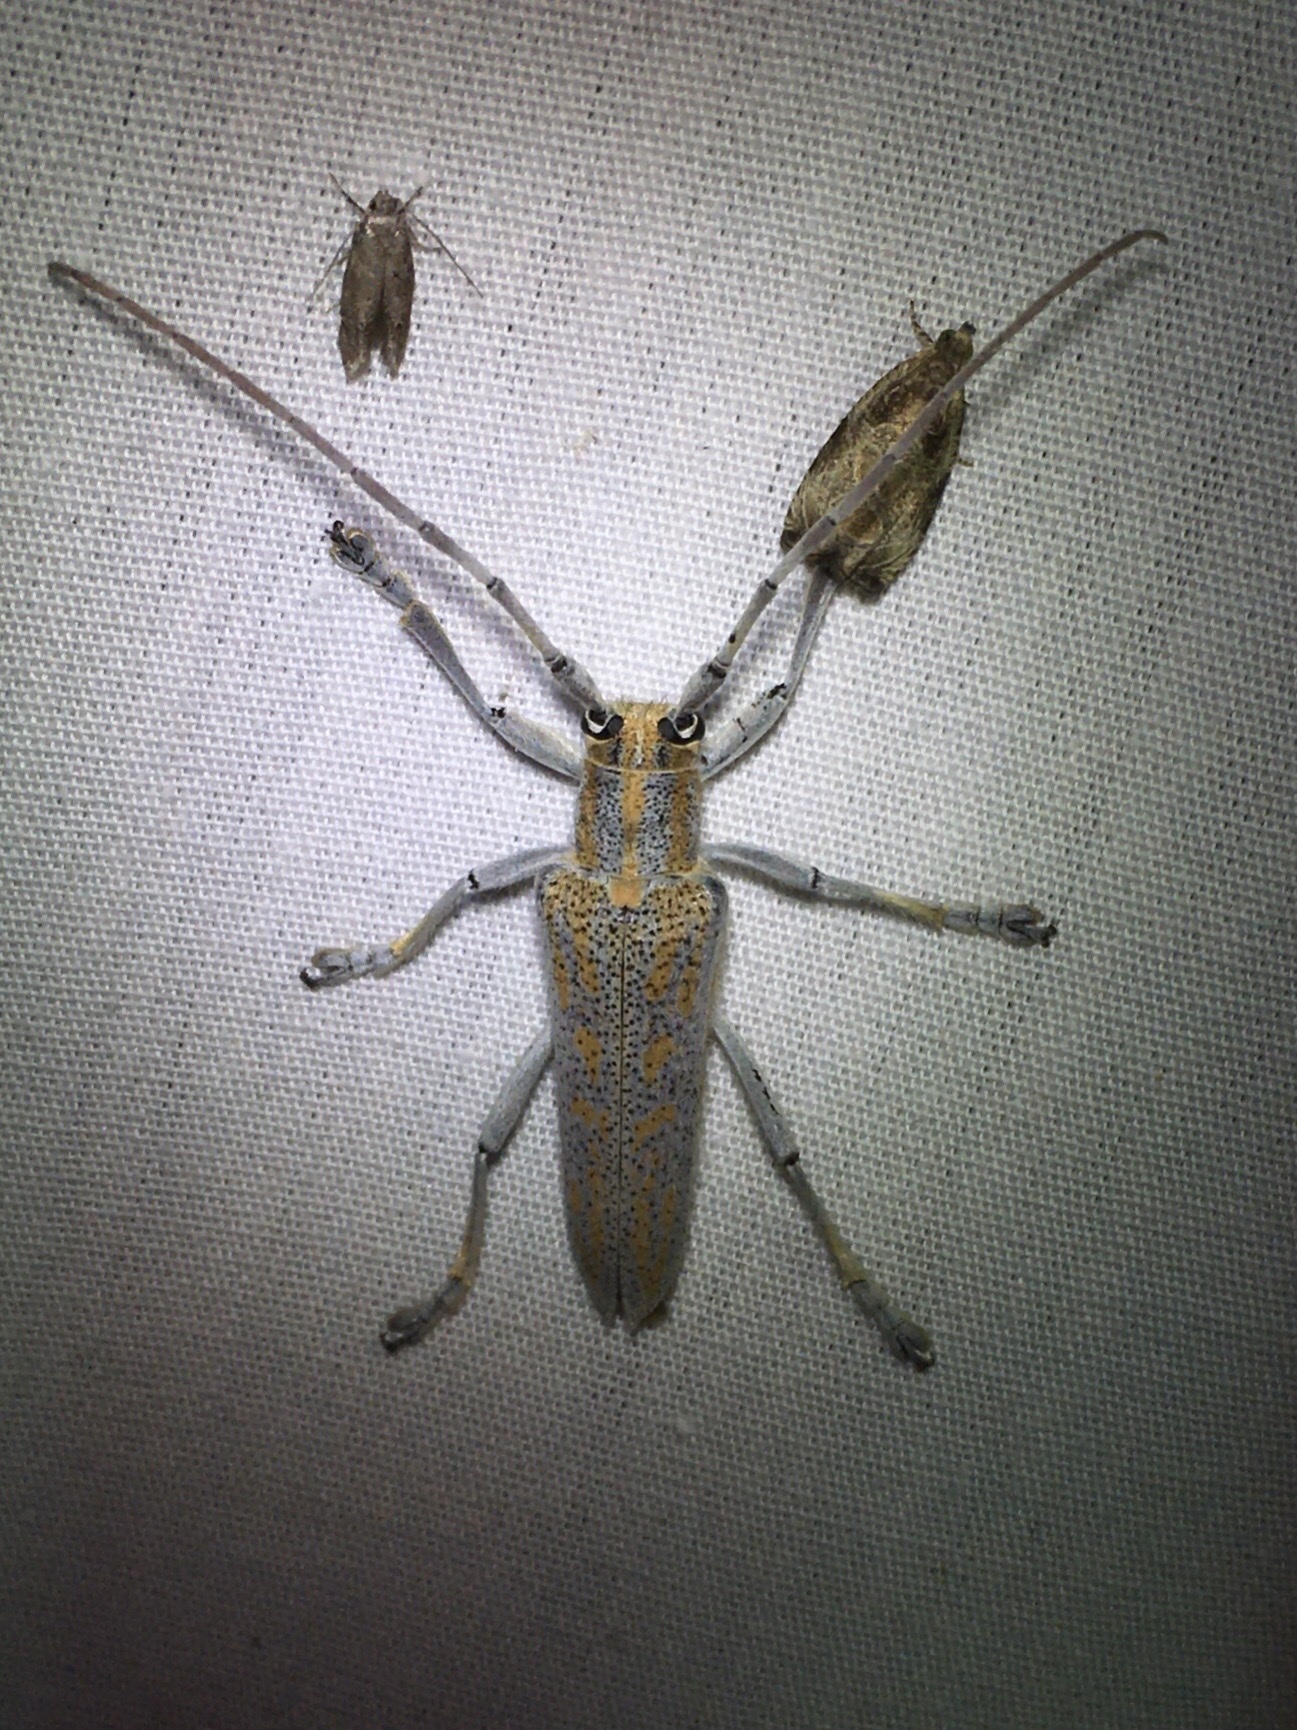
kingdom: Animalia
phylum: Arthropoda
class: Insecta
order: Coleoptera
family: Cerambycidae
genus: Saperda
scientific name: Saperda calcarata
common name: Poplar borer
